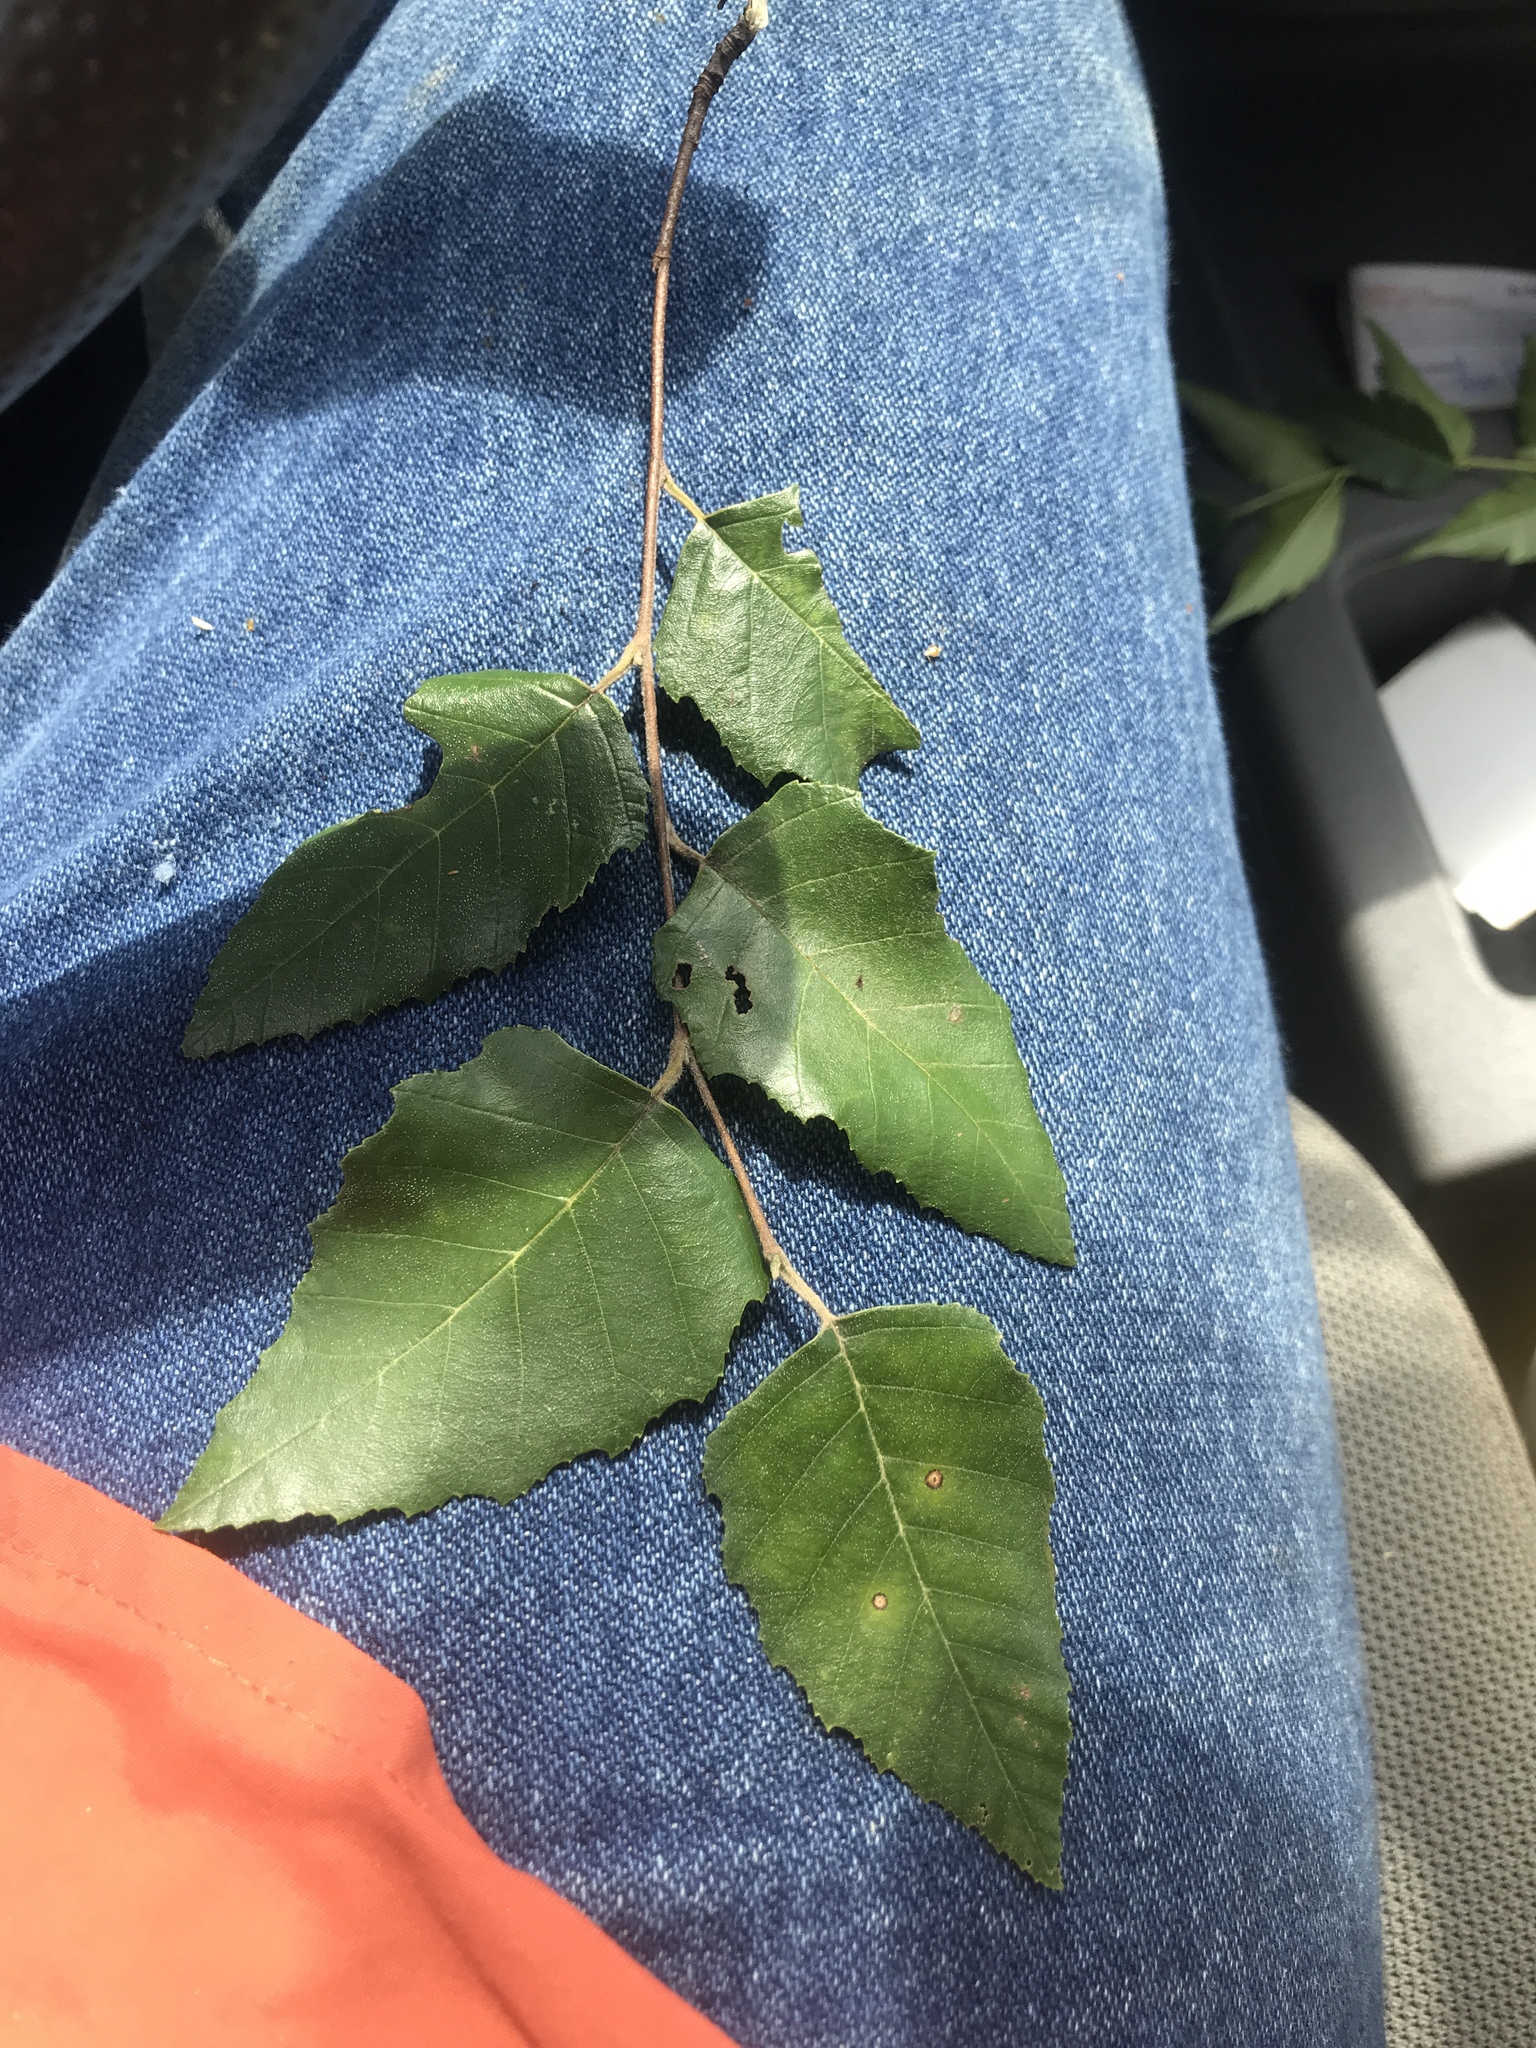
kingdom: Plantae
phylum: Tracheophyta
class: Magnoliopsida
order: Fagales
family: Betulaceae
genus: Betula
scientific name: Betula nigra
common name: Black birch
